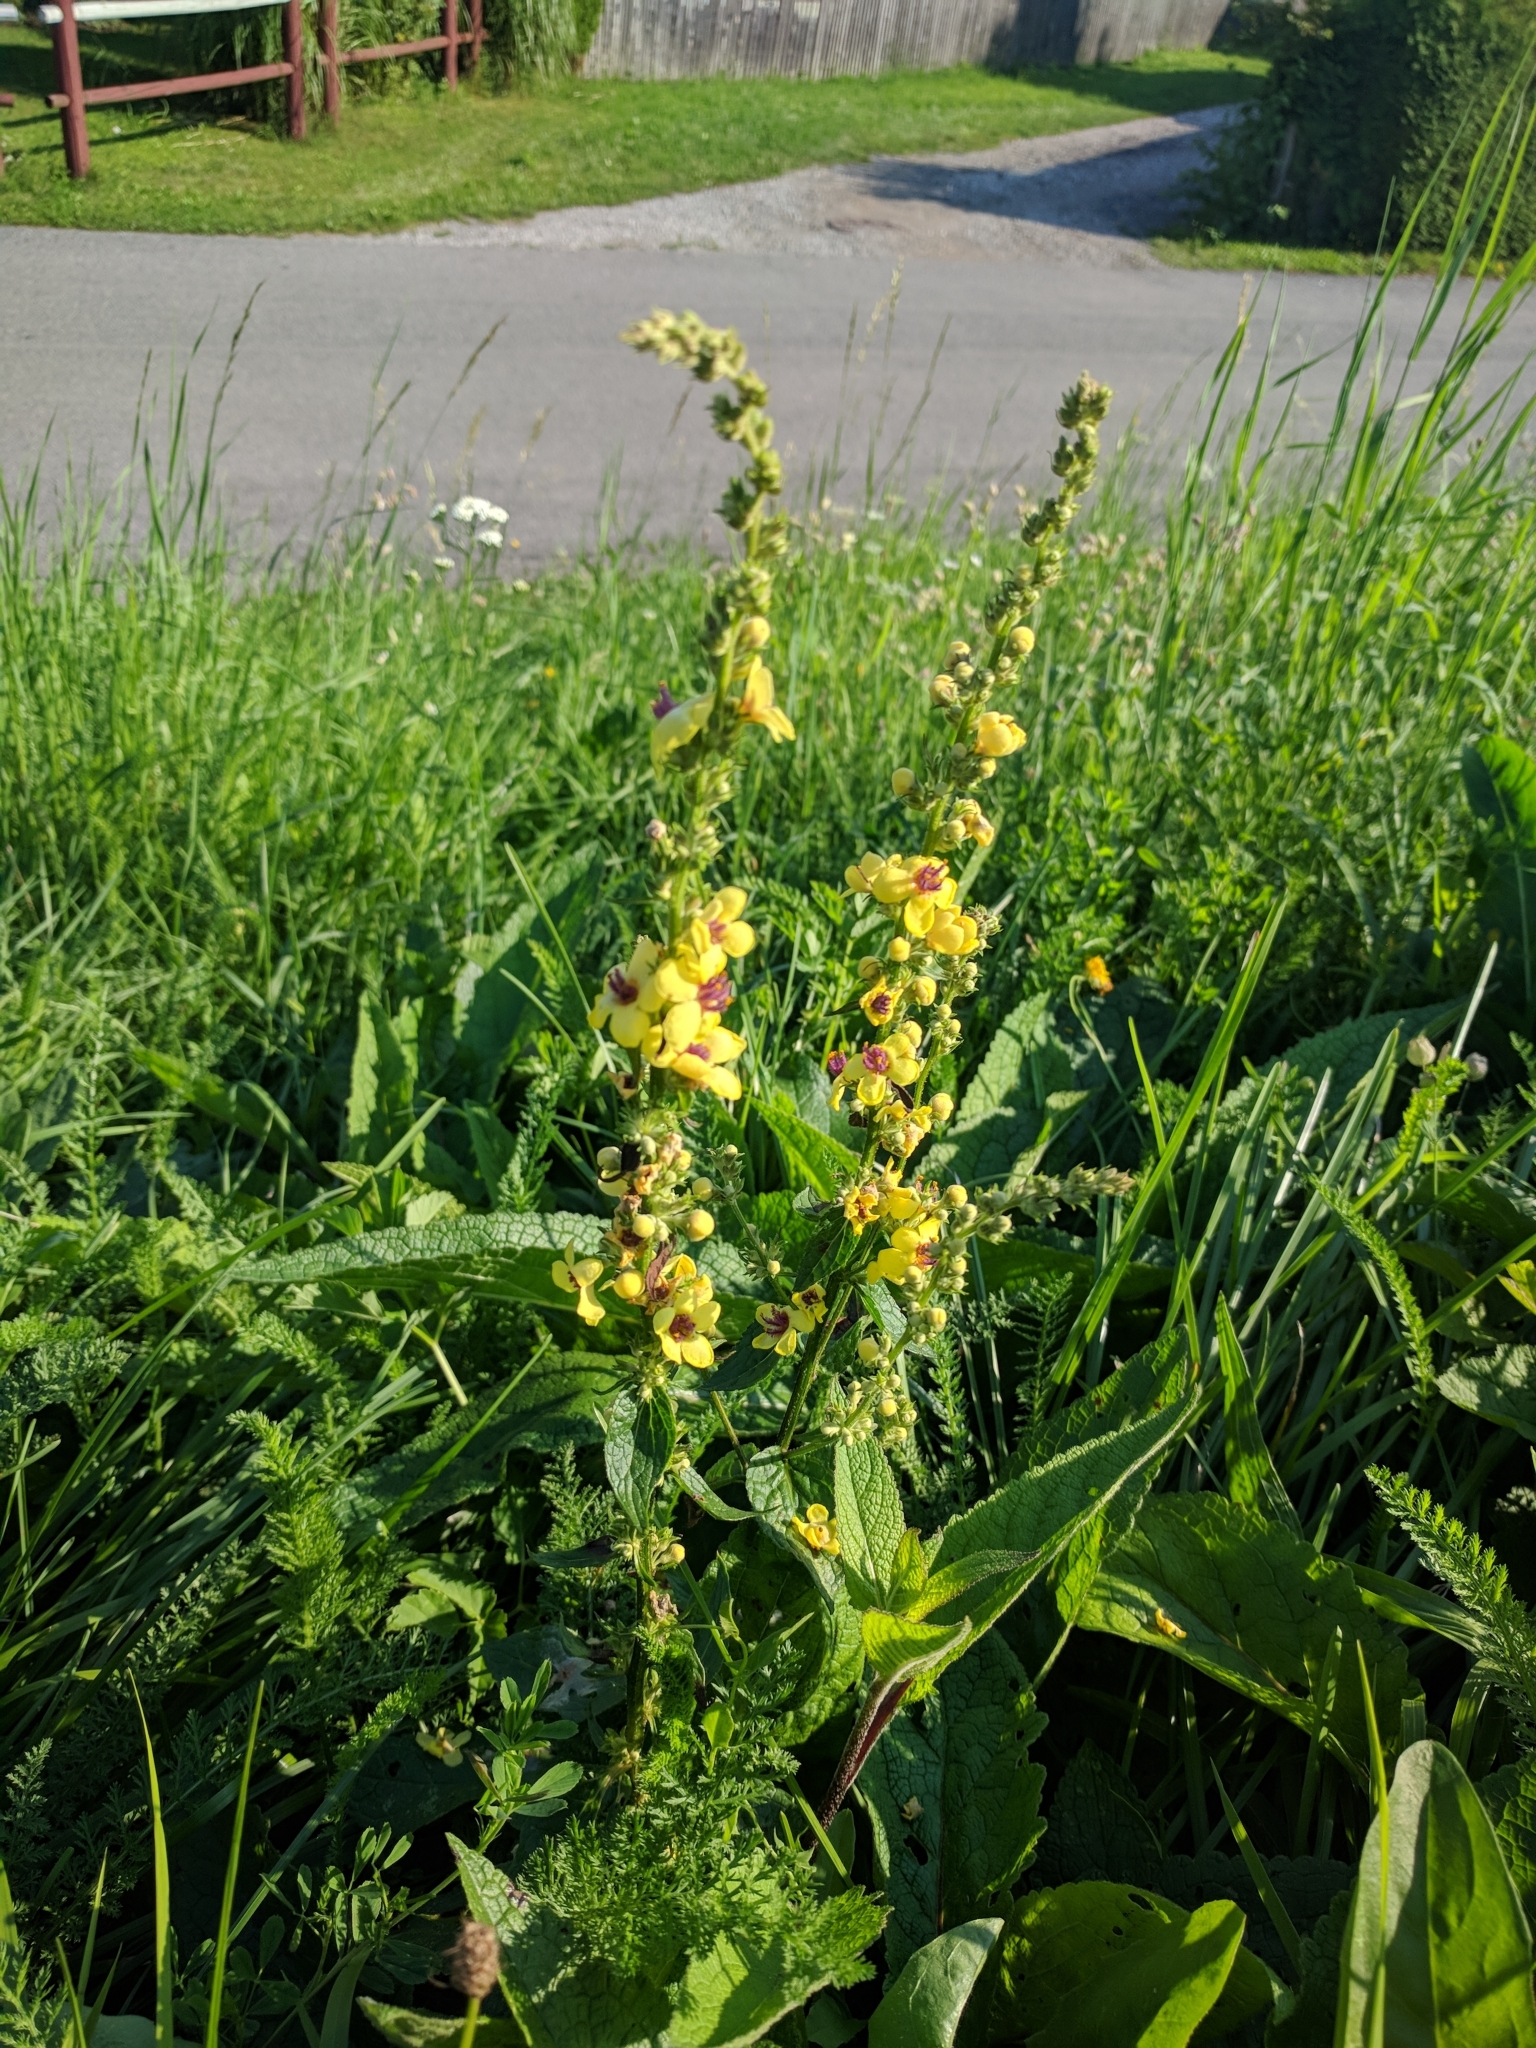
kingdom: Plantae
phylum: Tracheophyta
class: Magnoliopsida
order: Lamiales
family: Scrophulariaceae
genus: Verbascum
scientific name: Verbascum nigrum
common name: Dark mullein
